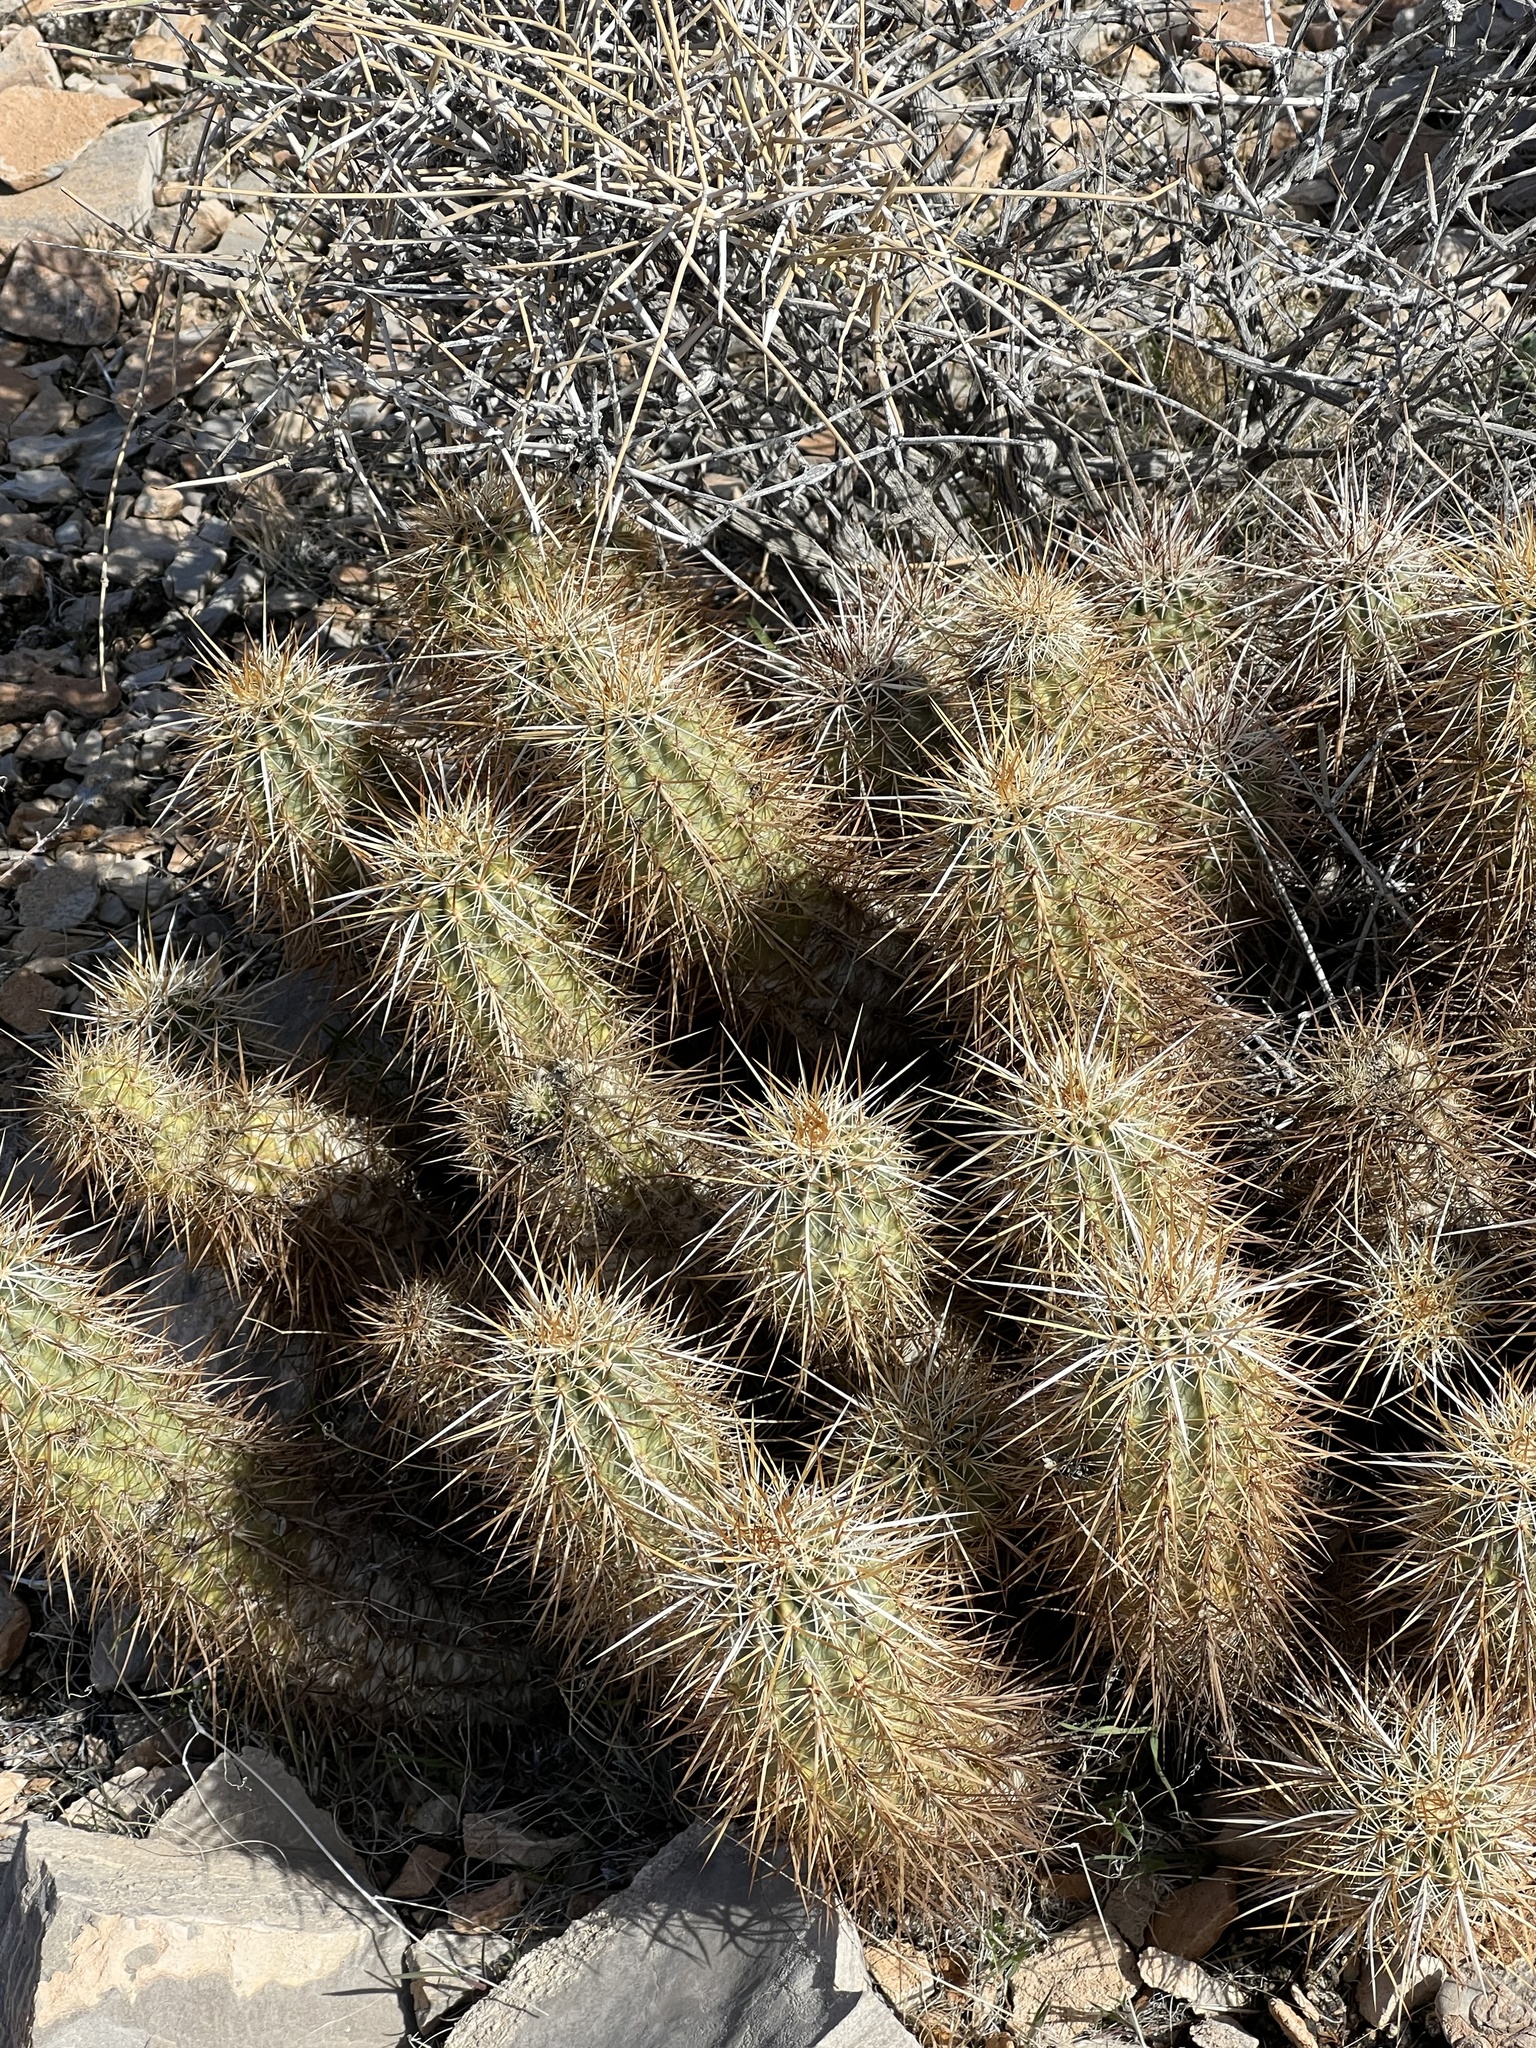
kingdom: Plantae
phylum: Tracheophyta
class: Magnoliopsida
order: Caryophyllales
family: Cactaceae
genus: Echinocereus
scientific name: Echinocereus engelmannii
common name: Engelmann's hedgehog cactus
